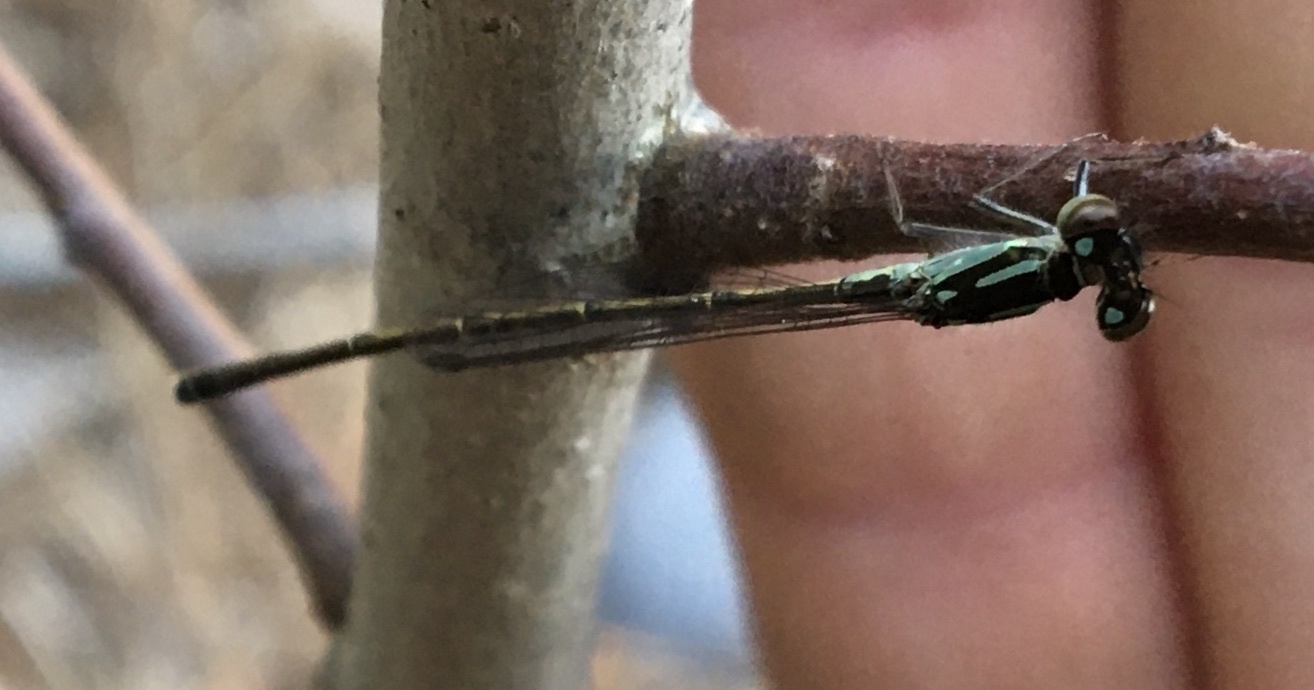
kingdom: Animalia
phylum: Arthropoda
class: Insecta
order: Odonata
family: Coenagrionidae
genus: Ischnura
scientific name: Ischnura posita
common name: Fragile forktail
